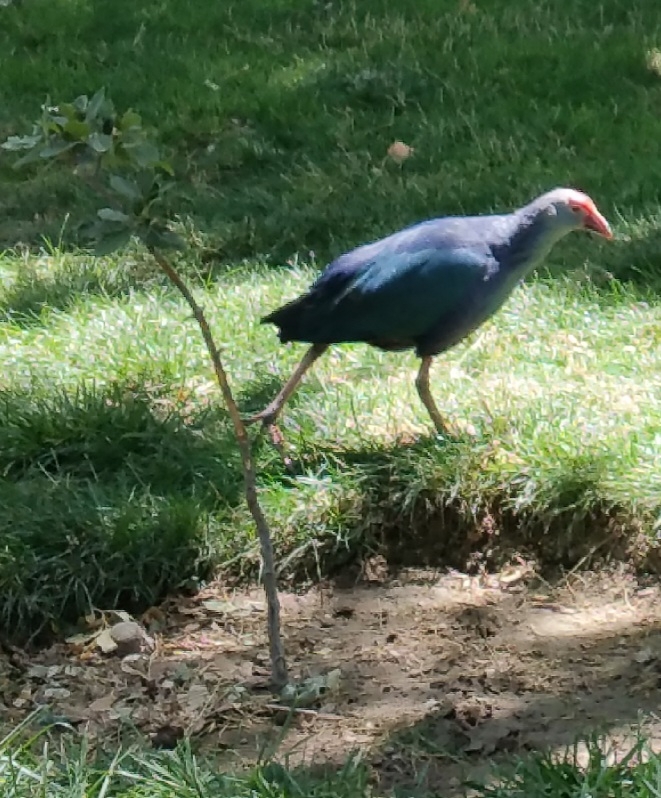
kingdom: Animalia
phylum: Chordata
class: Aves
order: Gruiformes
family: Rallidae
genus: Porphyrio
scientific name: Porphyrio porphyrio
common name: Purple swamphen
